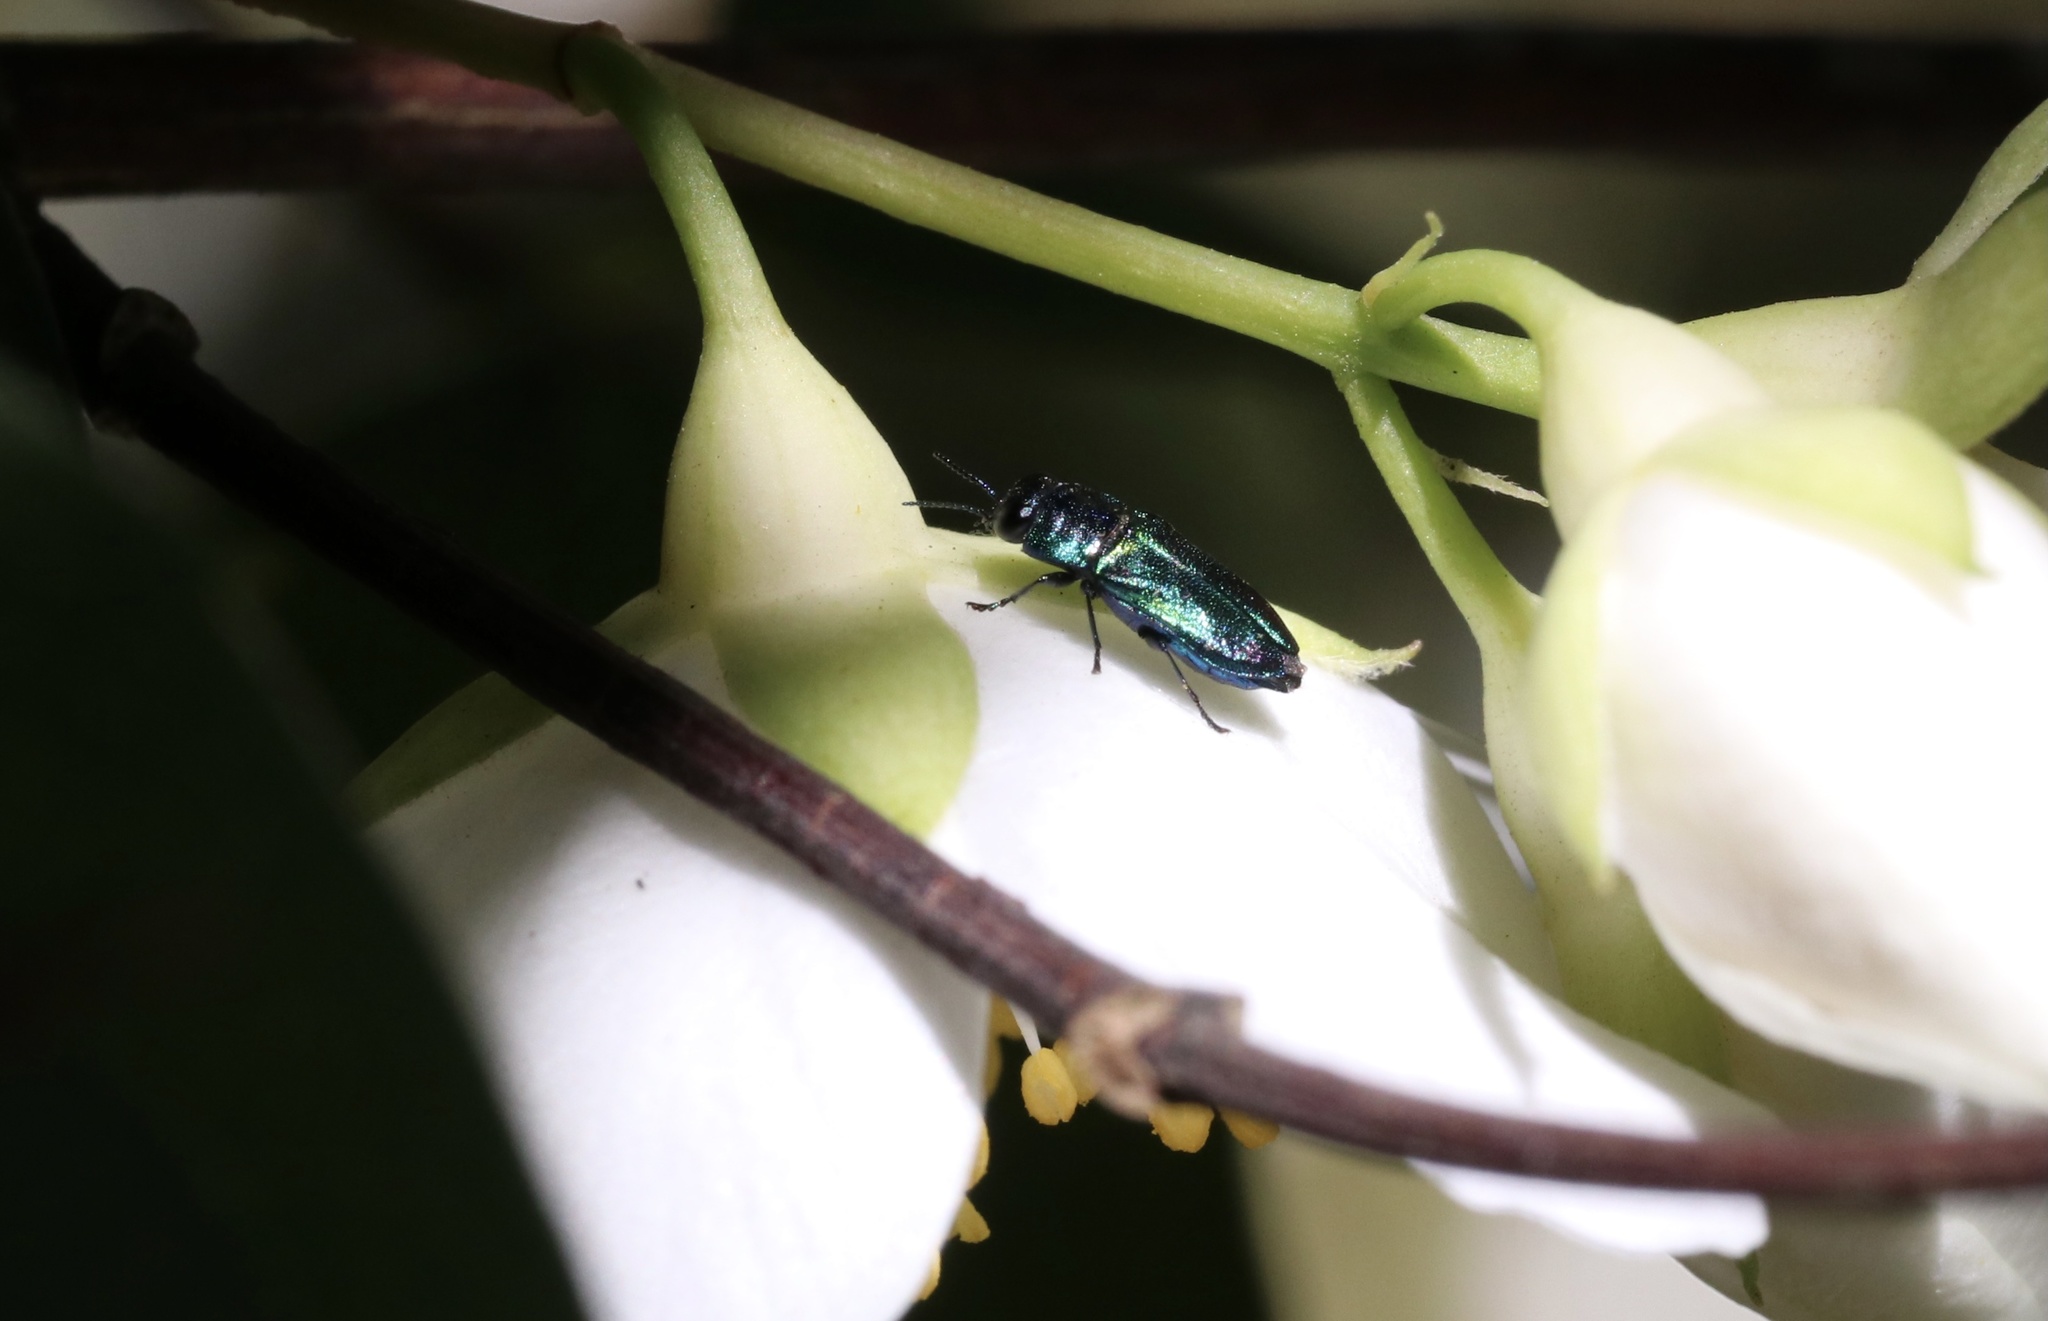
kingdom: Animalia
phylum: Arthropoda
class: Insecta
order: Coleoptera
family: Buprestidae
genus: Bilyaxia
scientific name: Bilyaxia concinna
